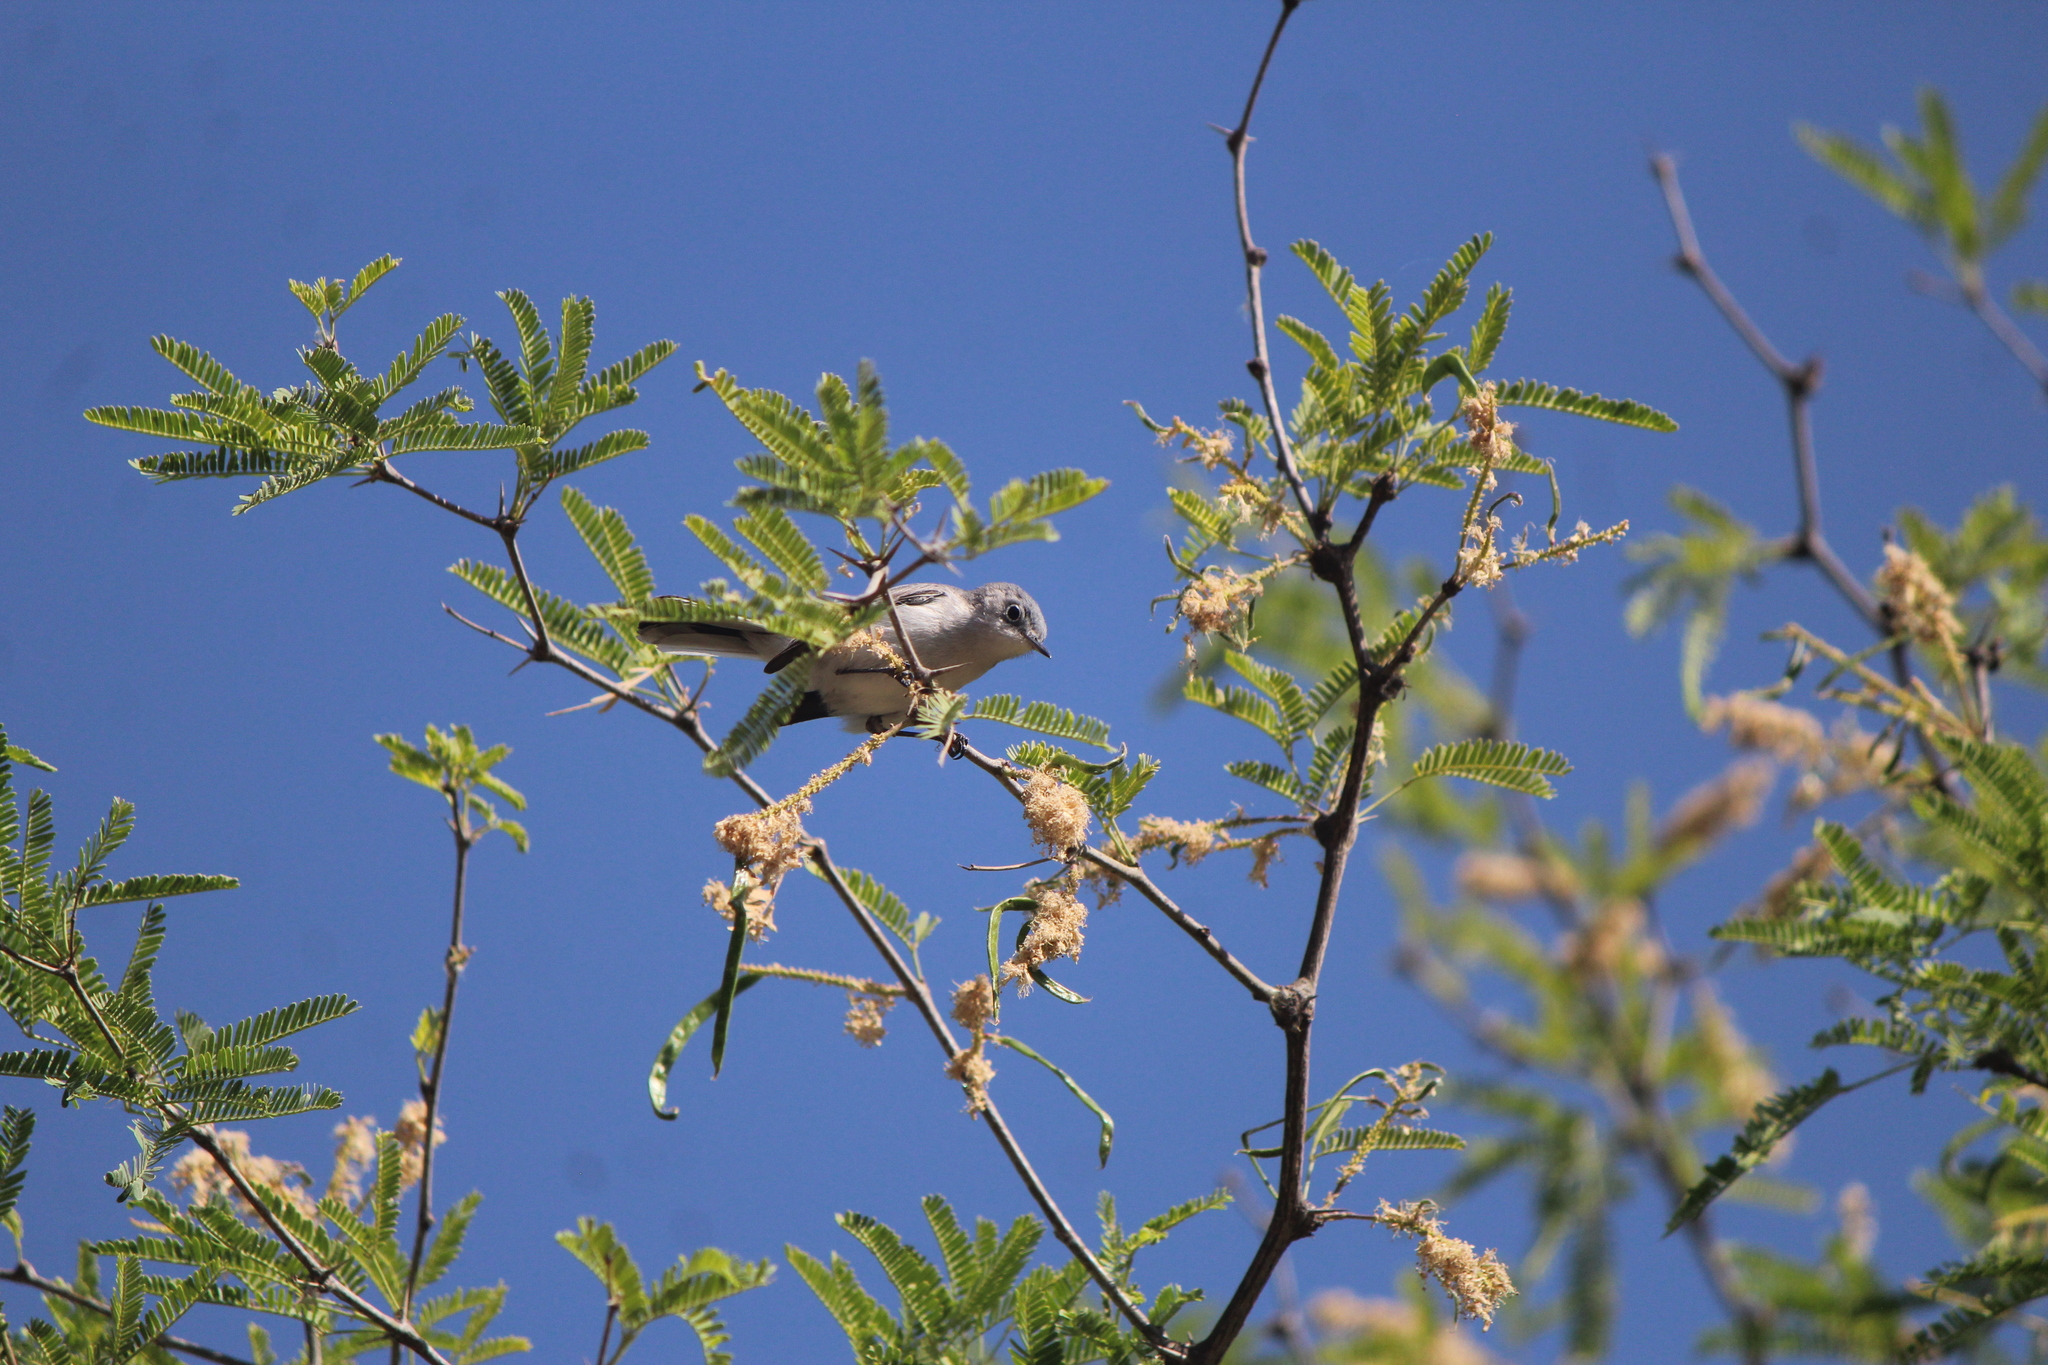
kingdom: Animalia
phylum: Chordata
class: Aves
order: Passeriformes
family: Polioptilidae
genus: Polioptila
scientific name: Polioptila caerulea
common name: Blue-gray gnatcatcher
